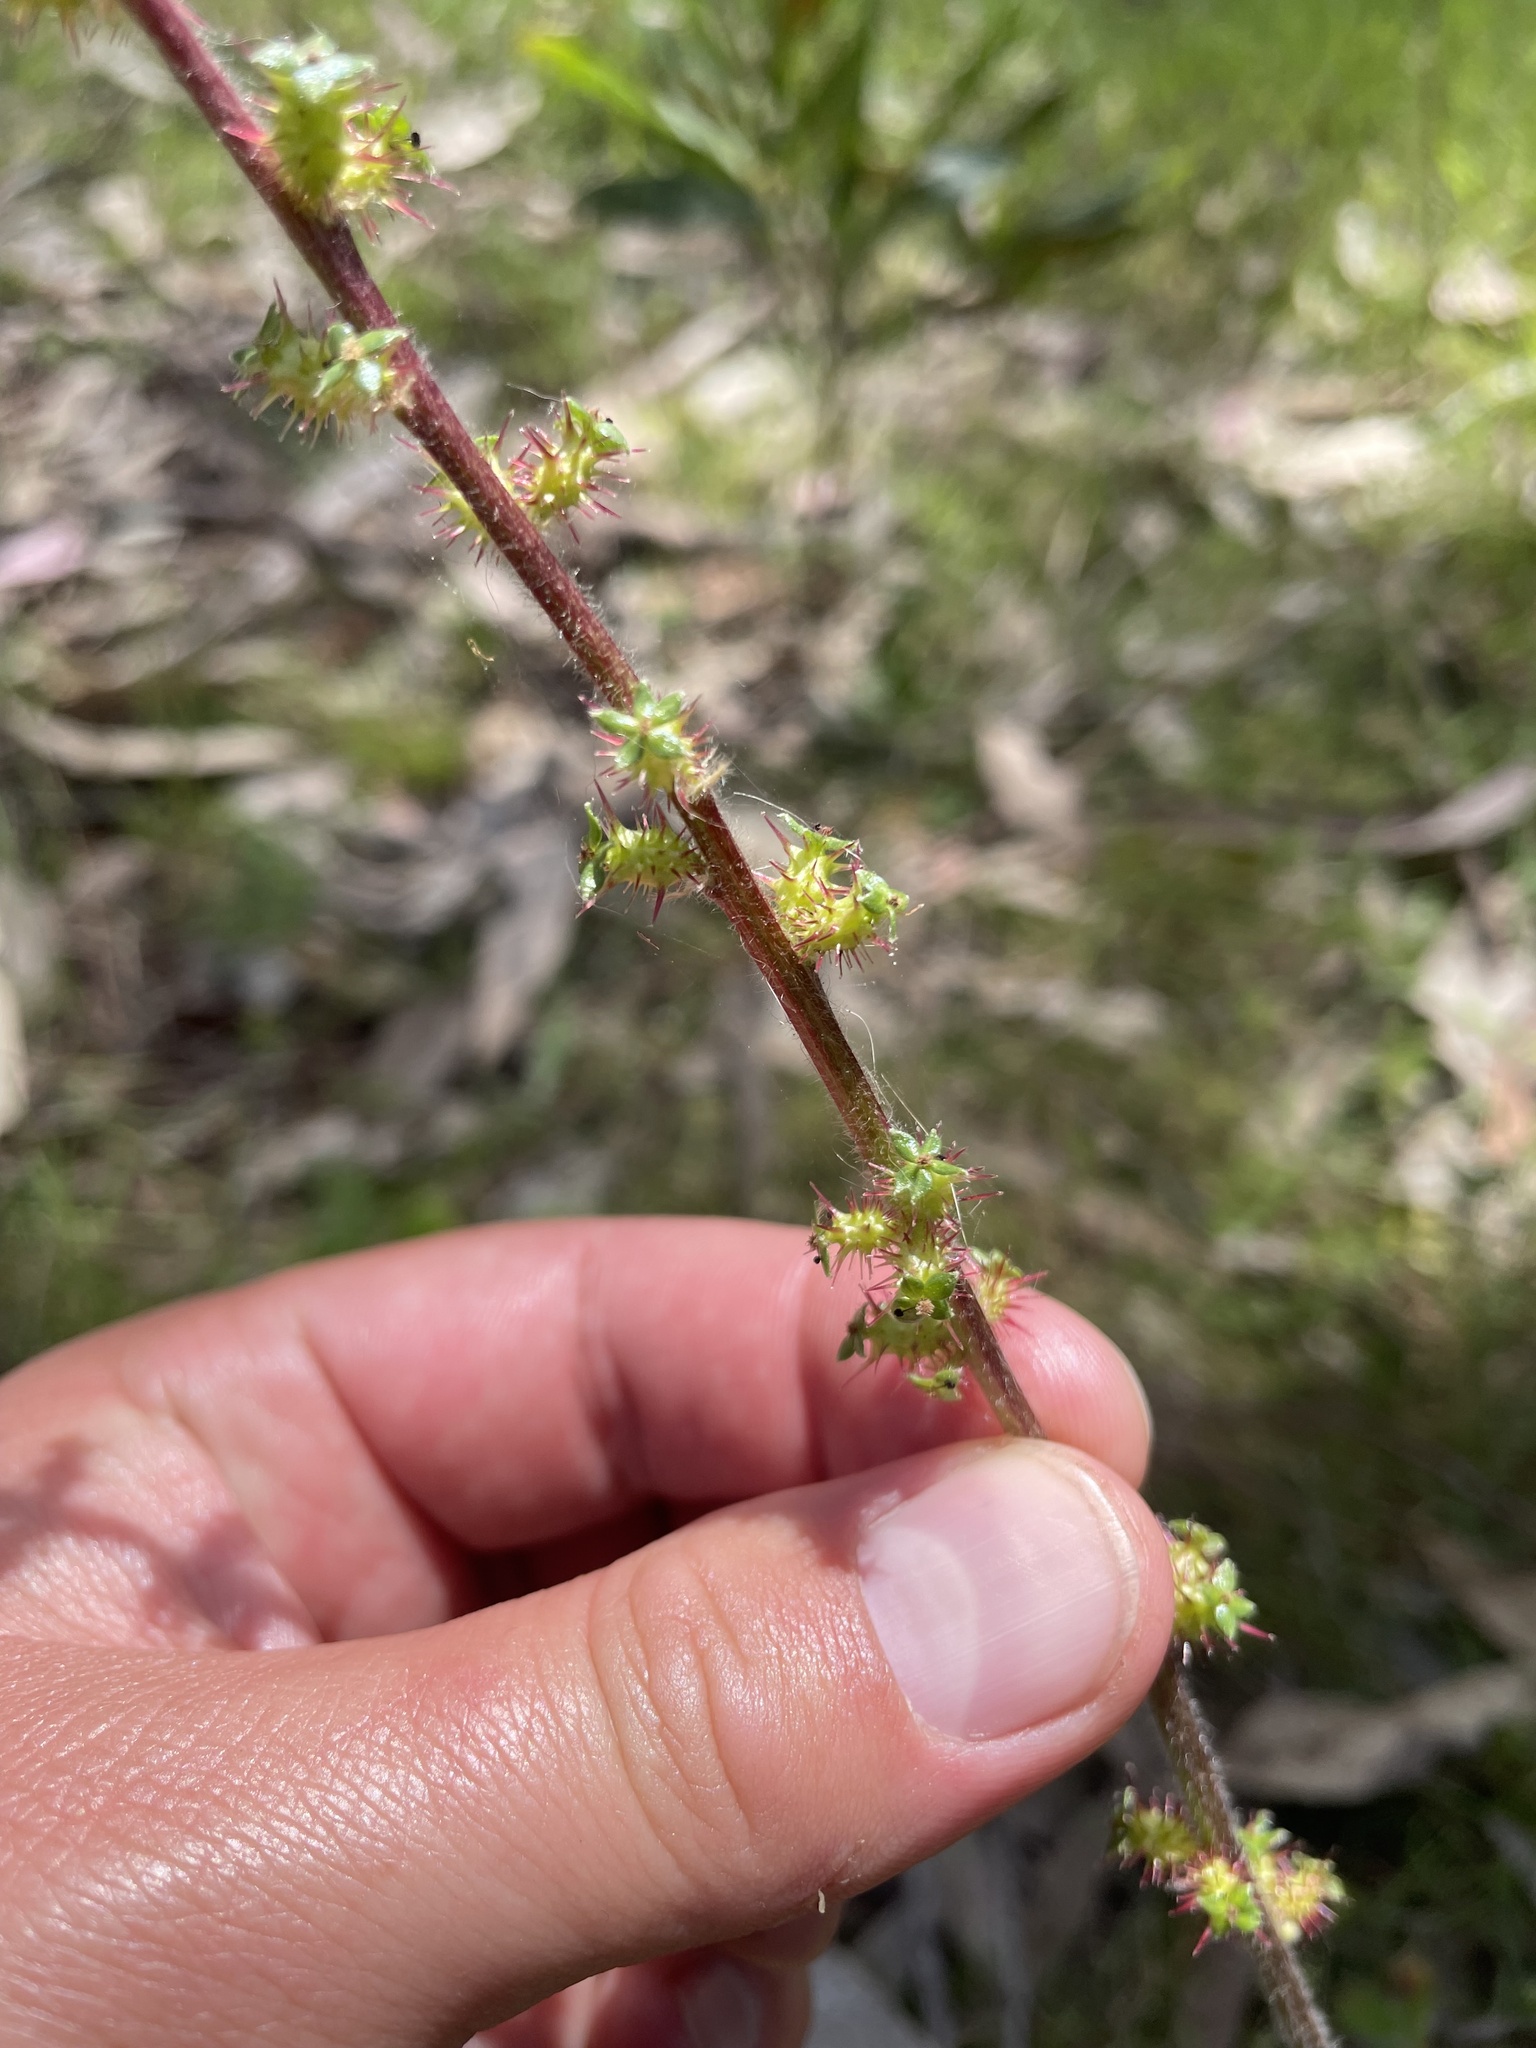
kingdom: Plantae
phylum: Tracheophyta
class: Magnoliopsida
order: Rosales
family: Rosaceae
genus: Acaena
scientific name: Acaena ovina
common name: Hairy sheepbur
